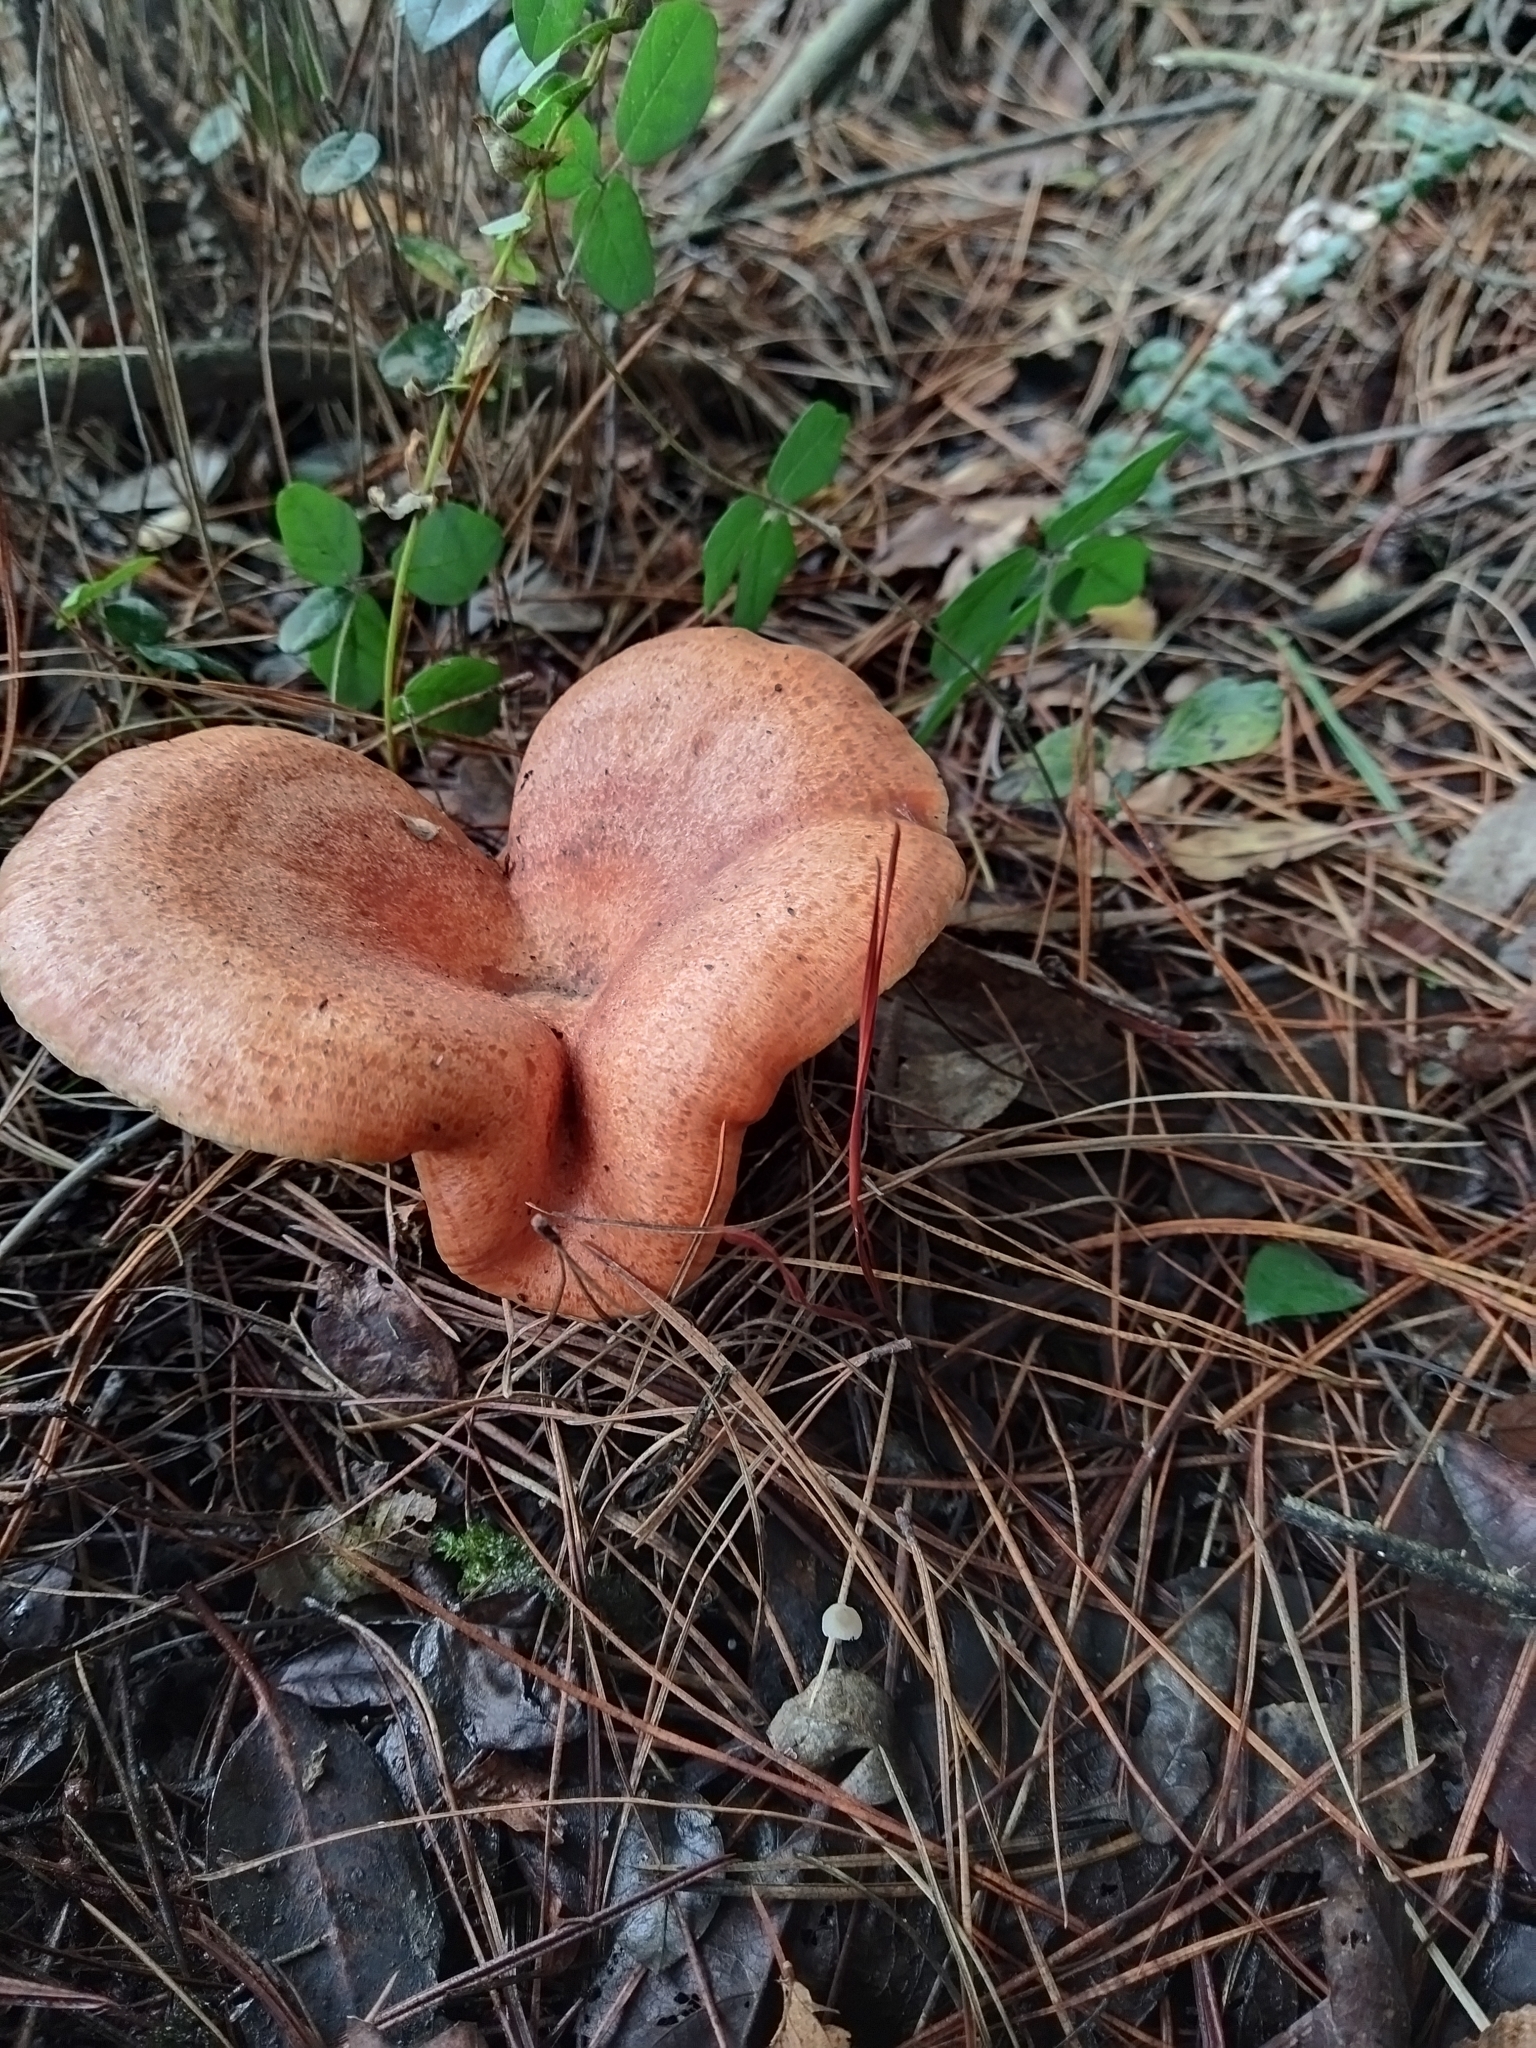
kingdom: Fungi
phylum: Basidiomycota
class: Agaricomycetes
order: Russulales
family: Russulaceae
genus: Lactarius
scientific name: Lactarius deliciosus
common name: Saffron milk-cap
